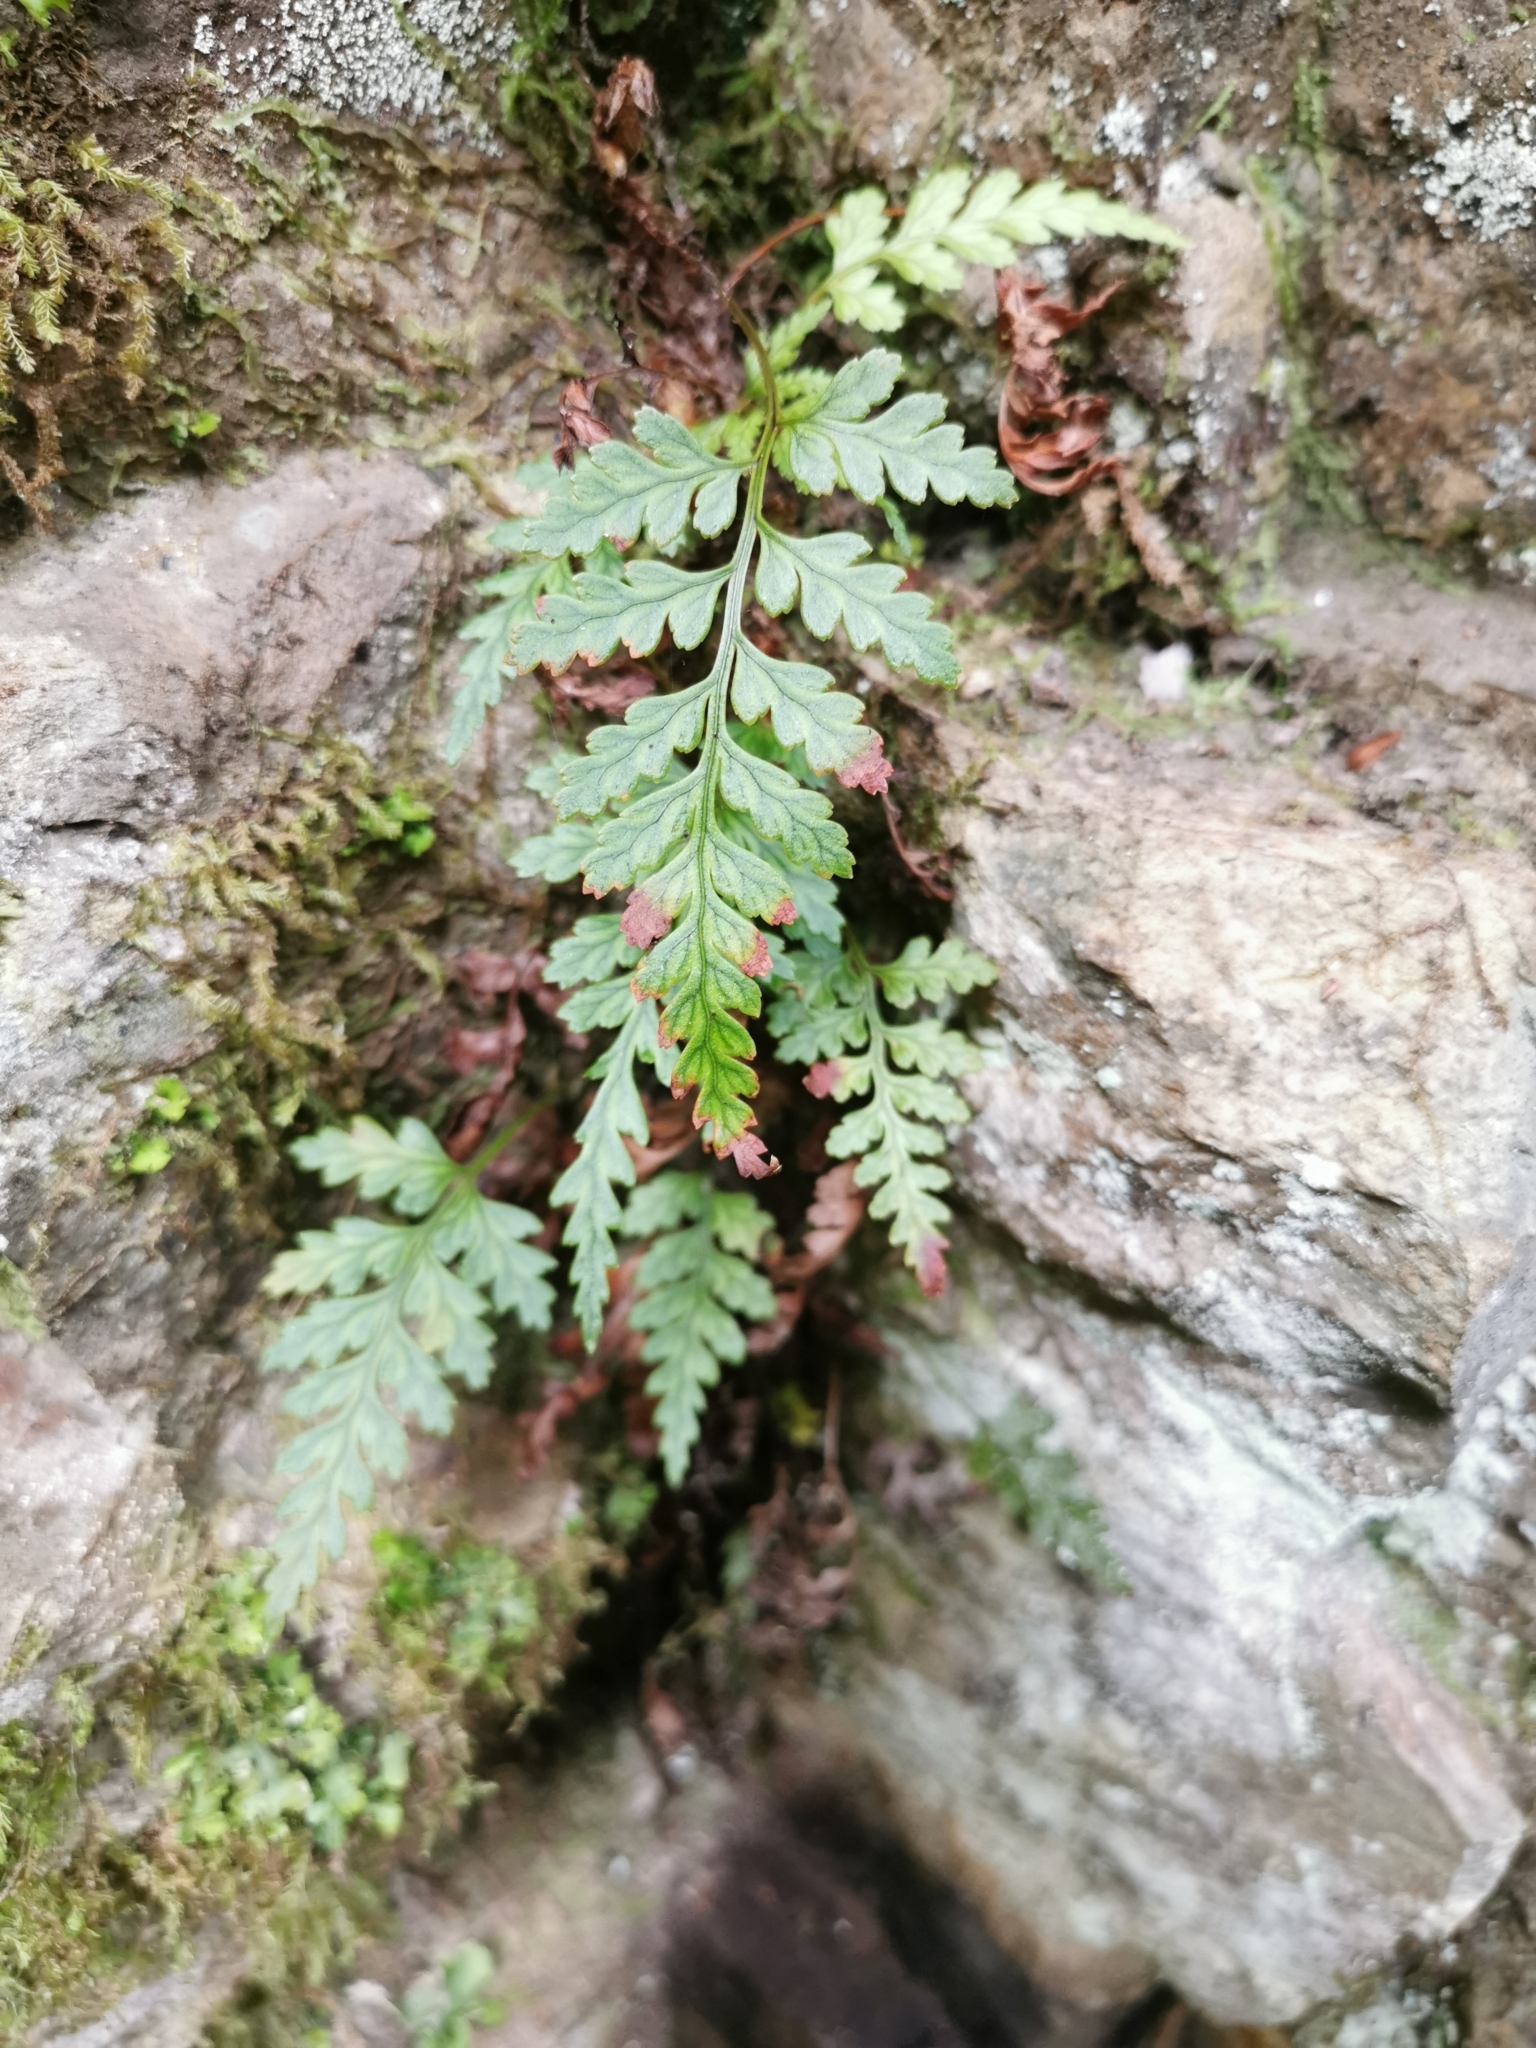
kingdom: Plantae
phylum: Tracheophyta
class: Polypodiopsida
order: Polypodiales
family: Dryopteridaceae
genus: Rumohra
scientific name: Rumohra adiantiformis
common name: Leather fern
